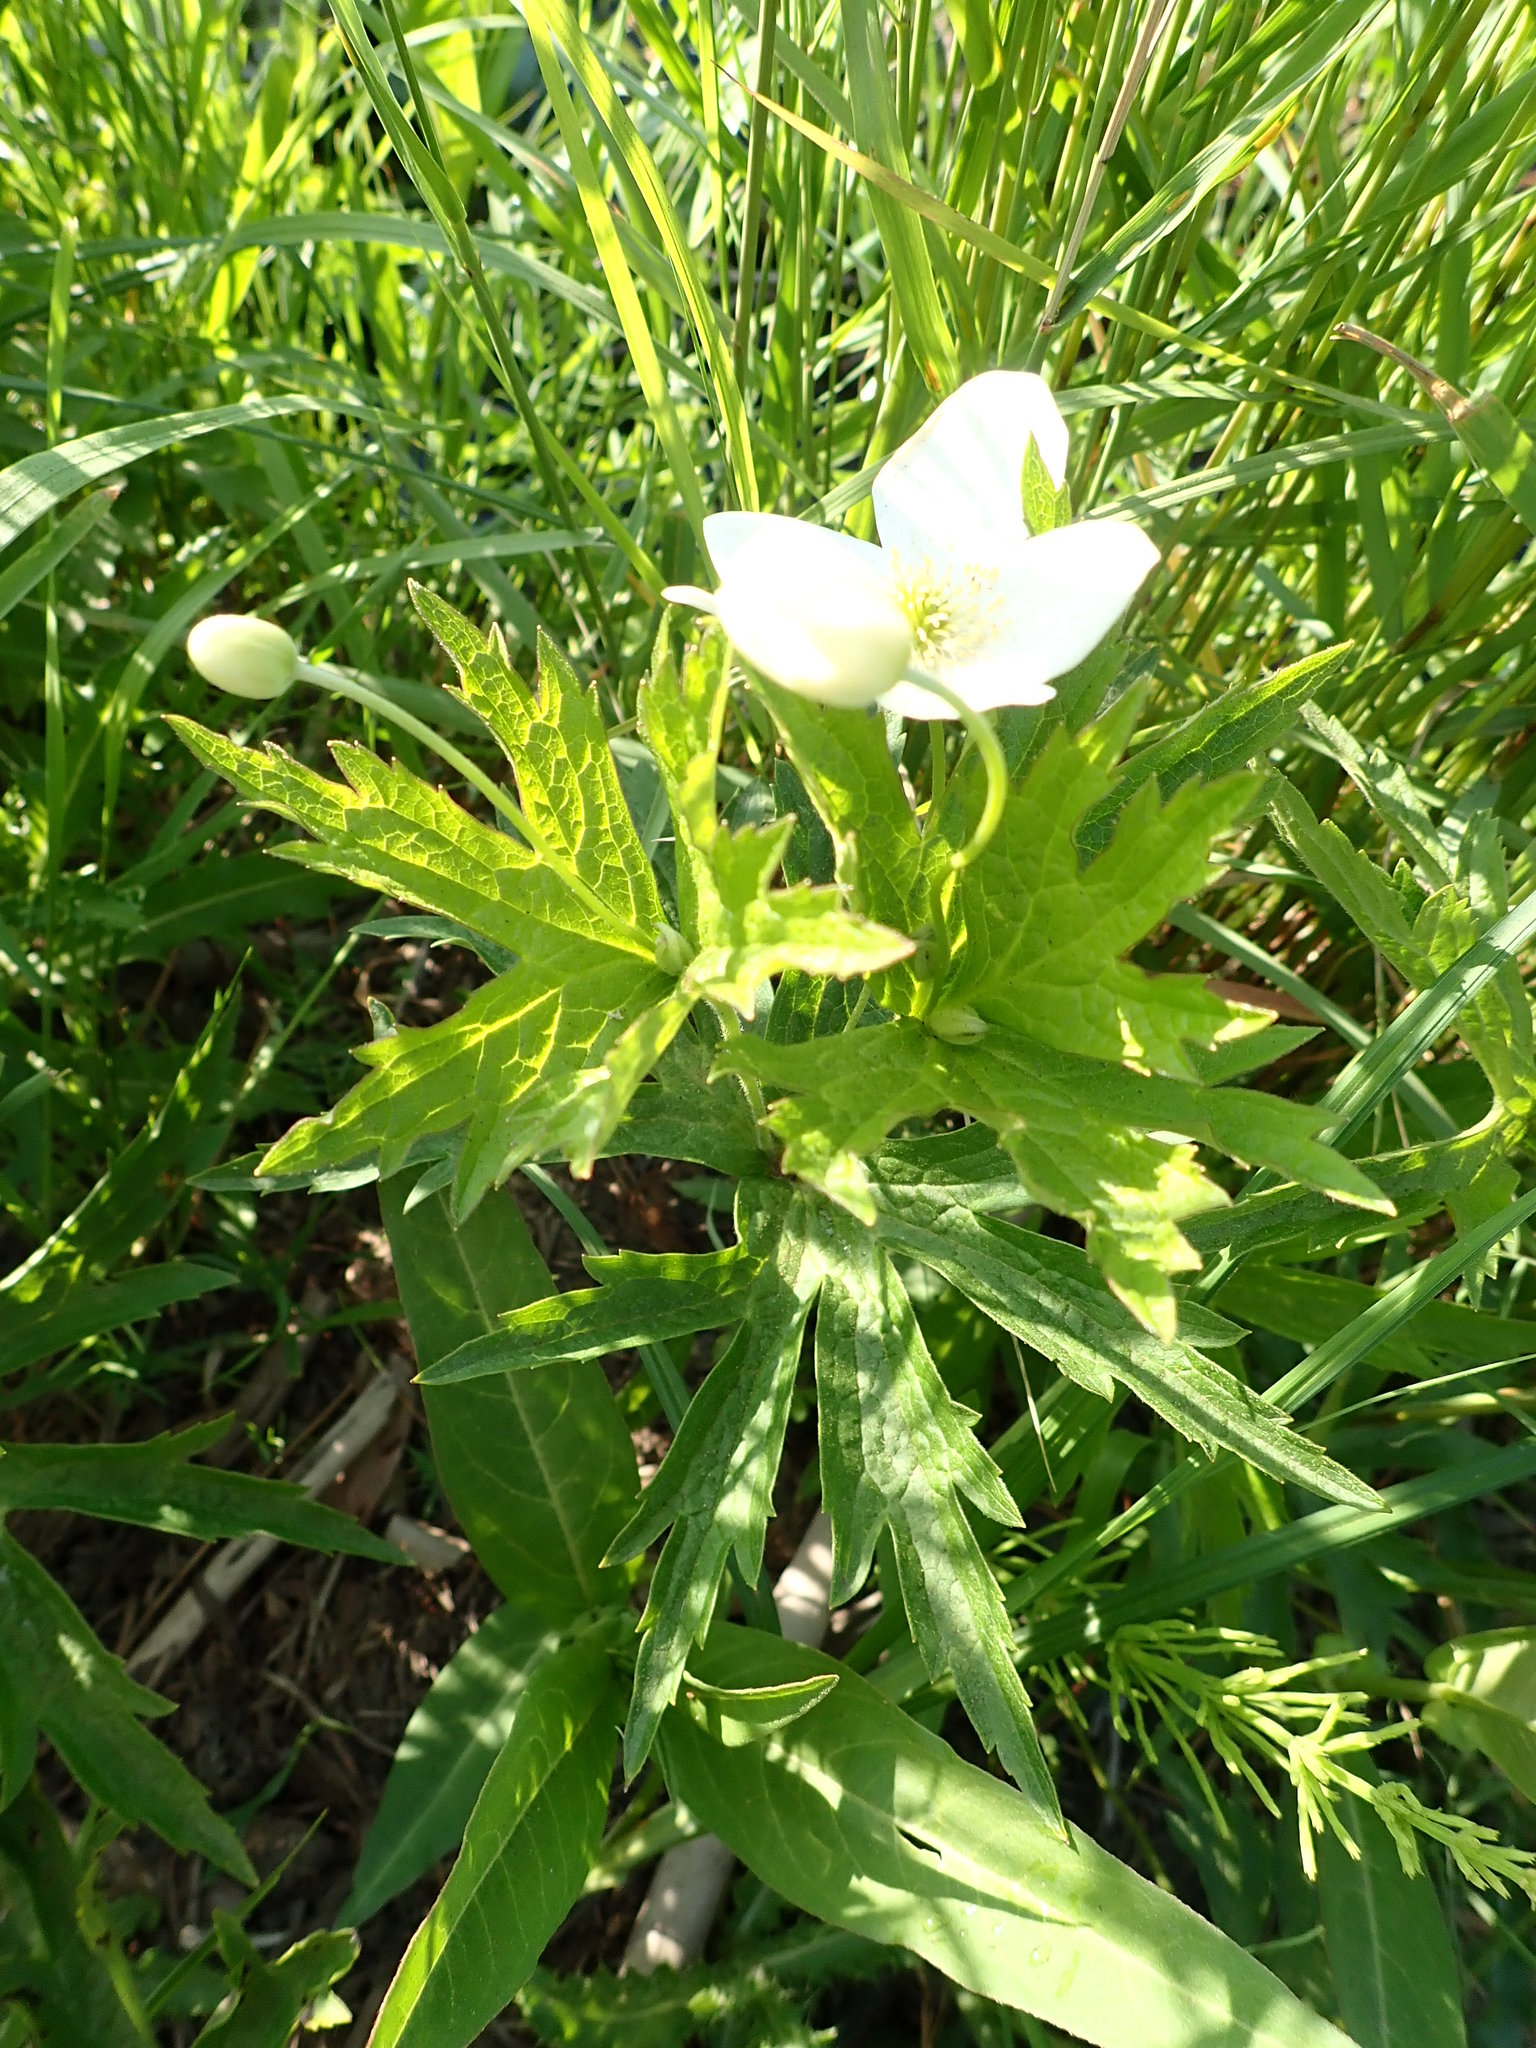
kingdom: Plantae
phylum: Tracheophyta
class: Magnoliopsida
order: Ranunculales
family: Ranunculaceae
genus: Anemonastrum
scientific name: Anemonastrum canadense
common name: Canada anemone
